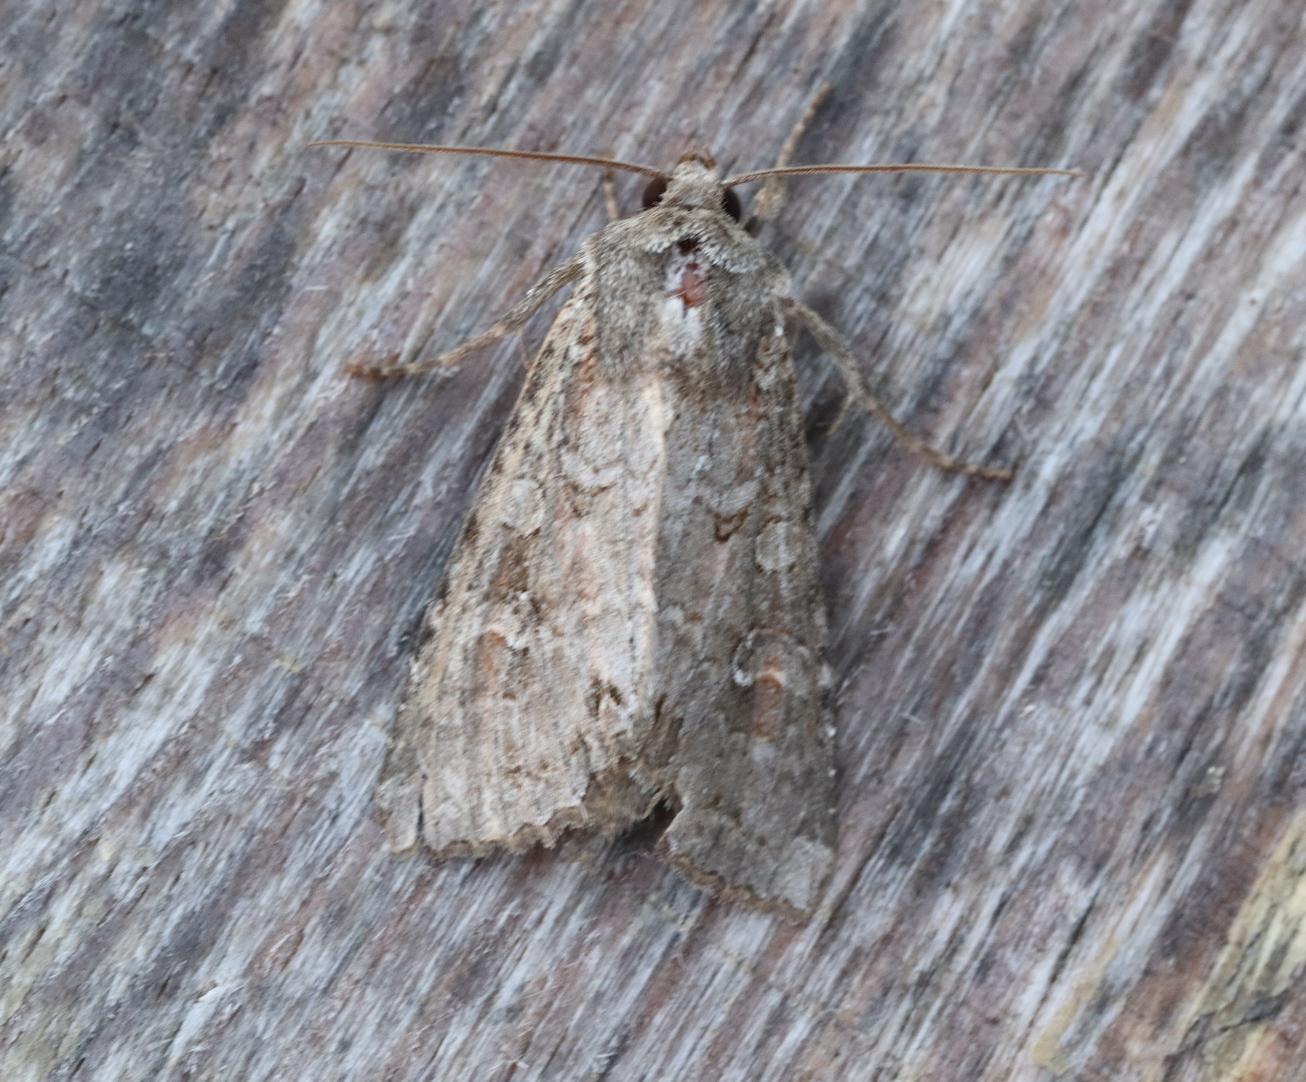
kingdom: Animalia
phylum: Arthropoda
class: Insecta
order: Lepidoptera
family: Noctuidae
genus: Polia
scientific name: Polia bombycina
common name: Pale shining brown
